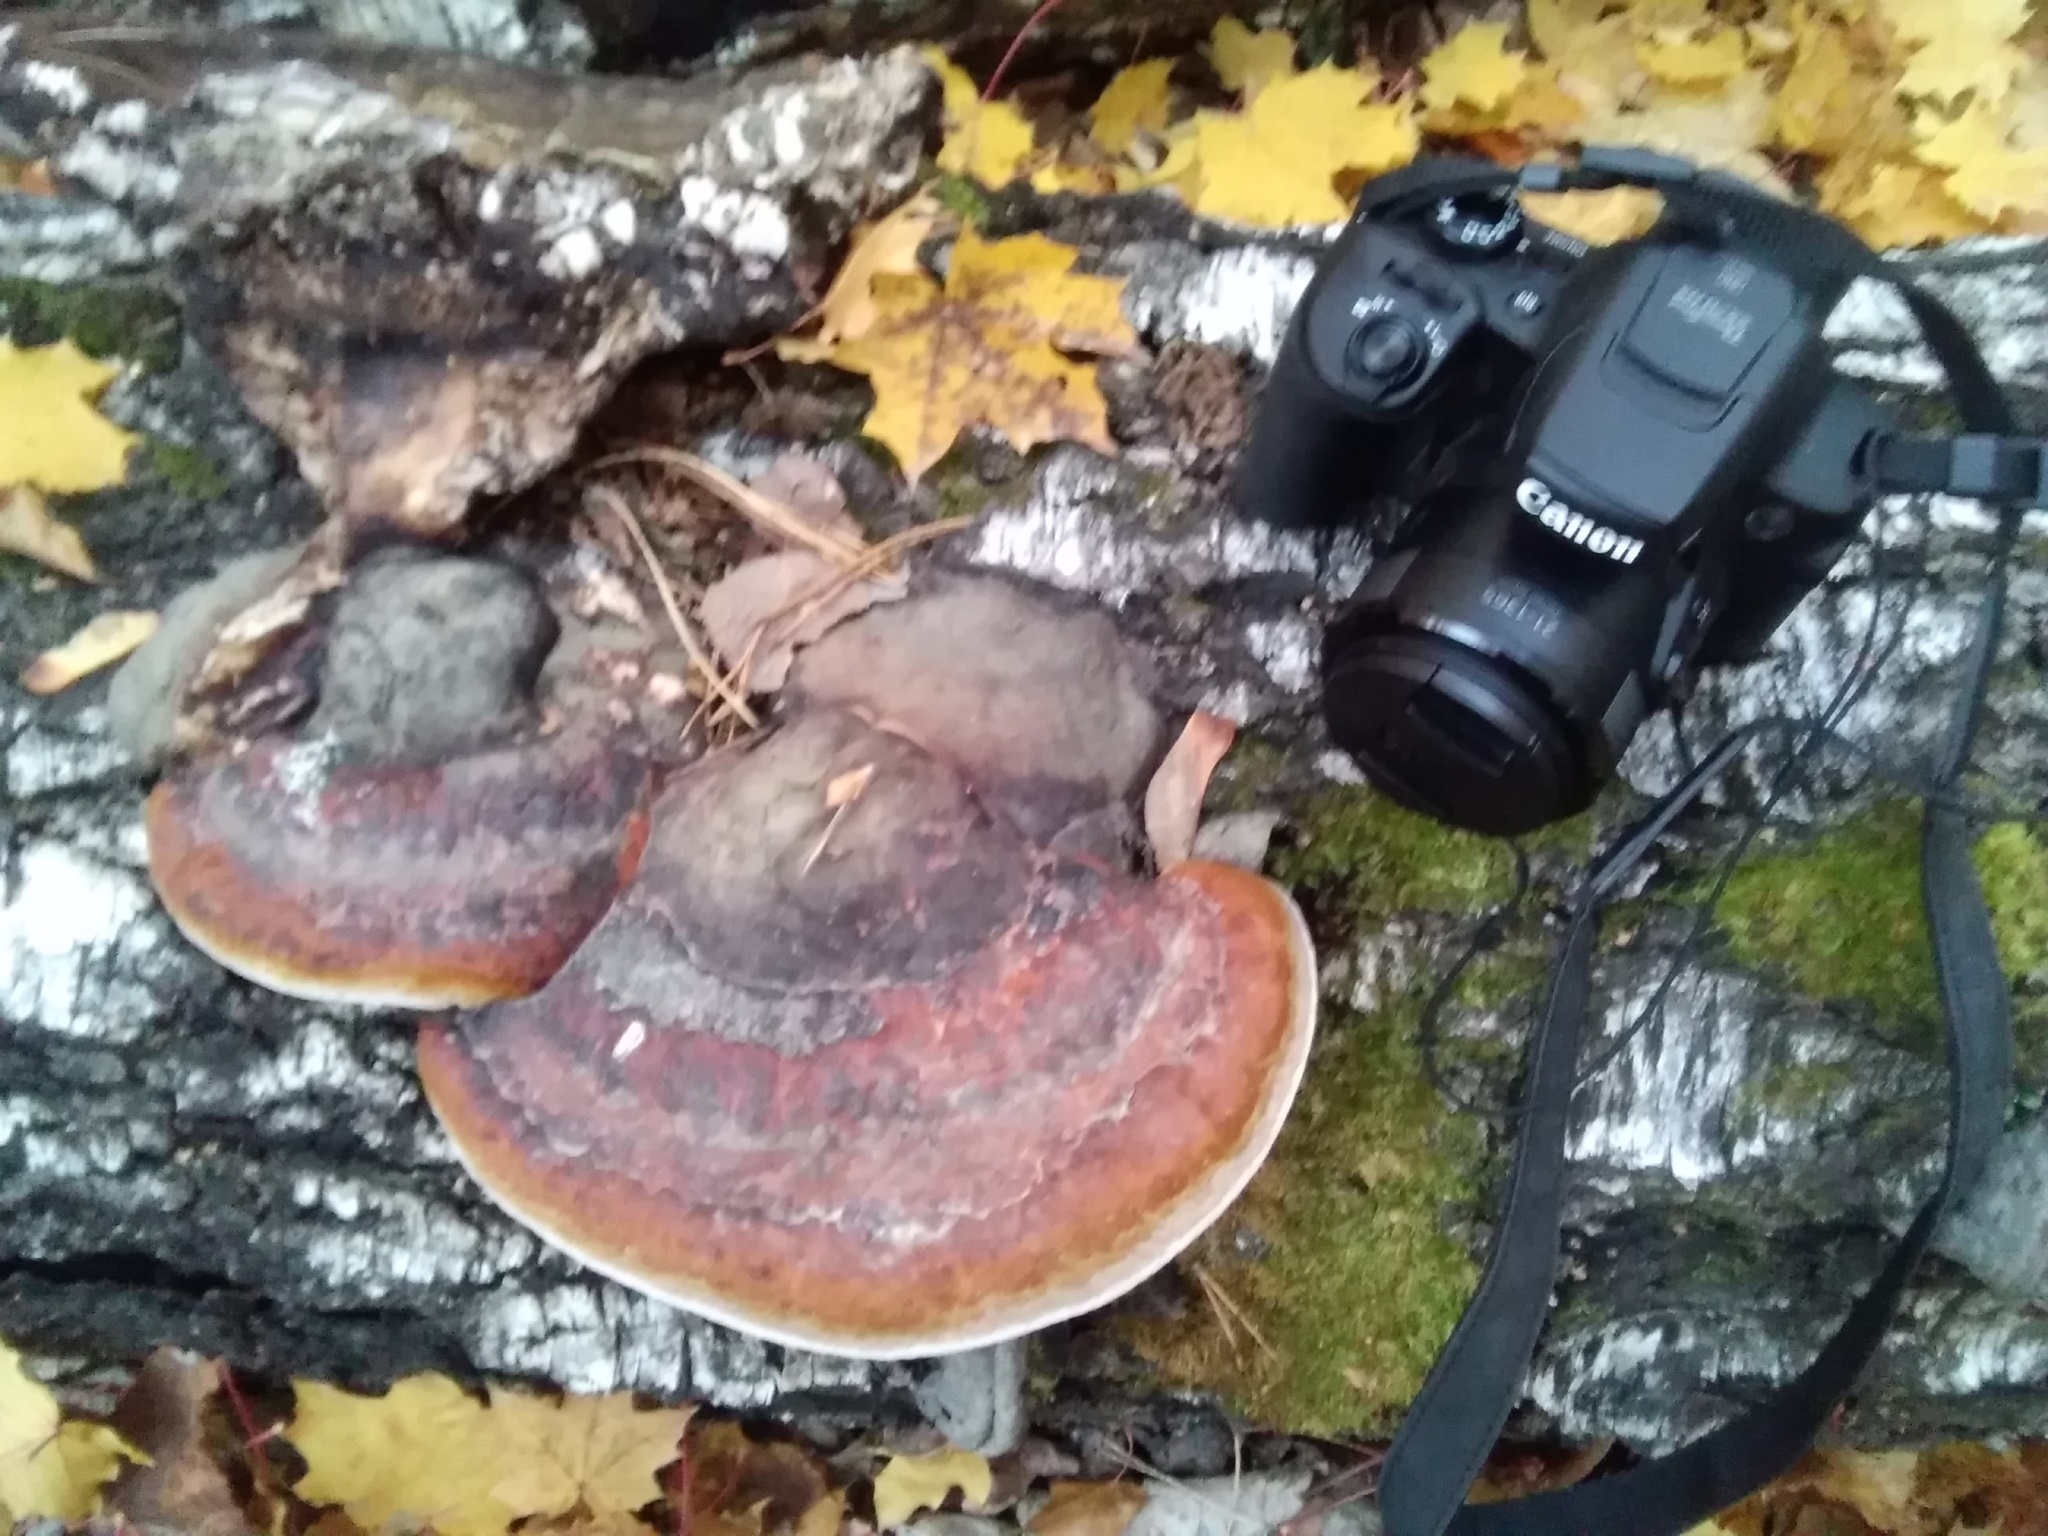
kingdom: Fungi
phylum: Basidiomycota
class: Agaricomycetes
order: Polyporales
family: Fomitopsidaceae
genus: Fomitopsis
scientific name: Fomitopsis pinicola
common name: Red-belted bracket
